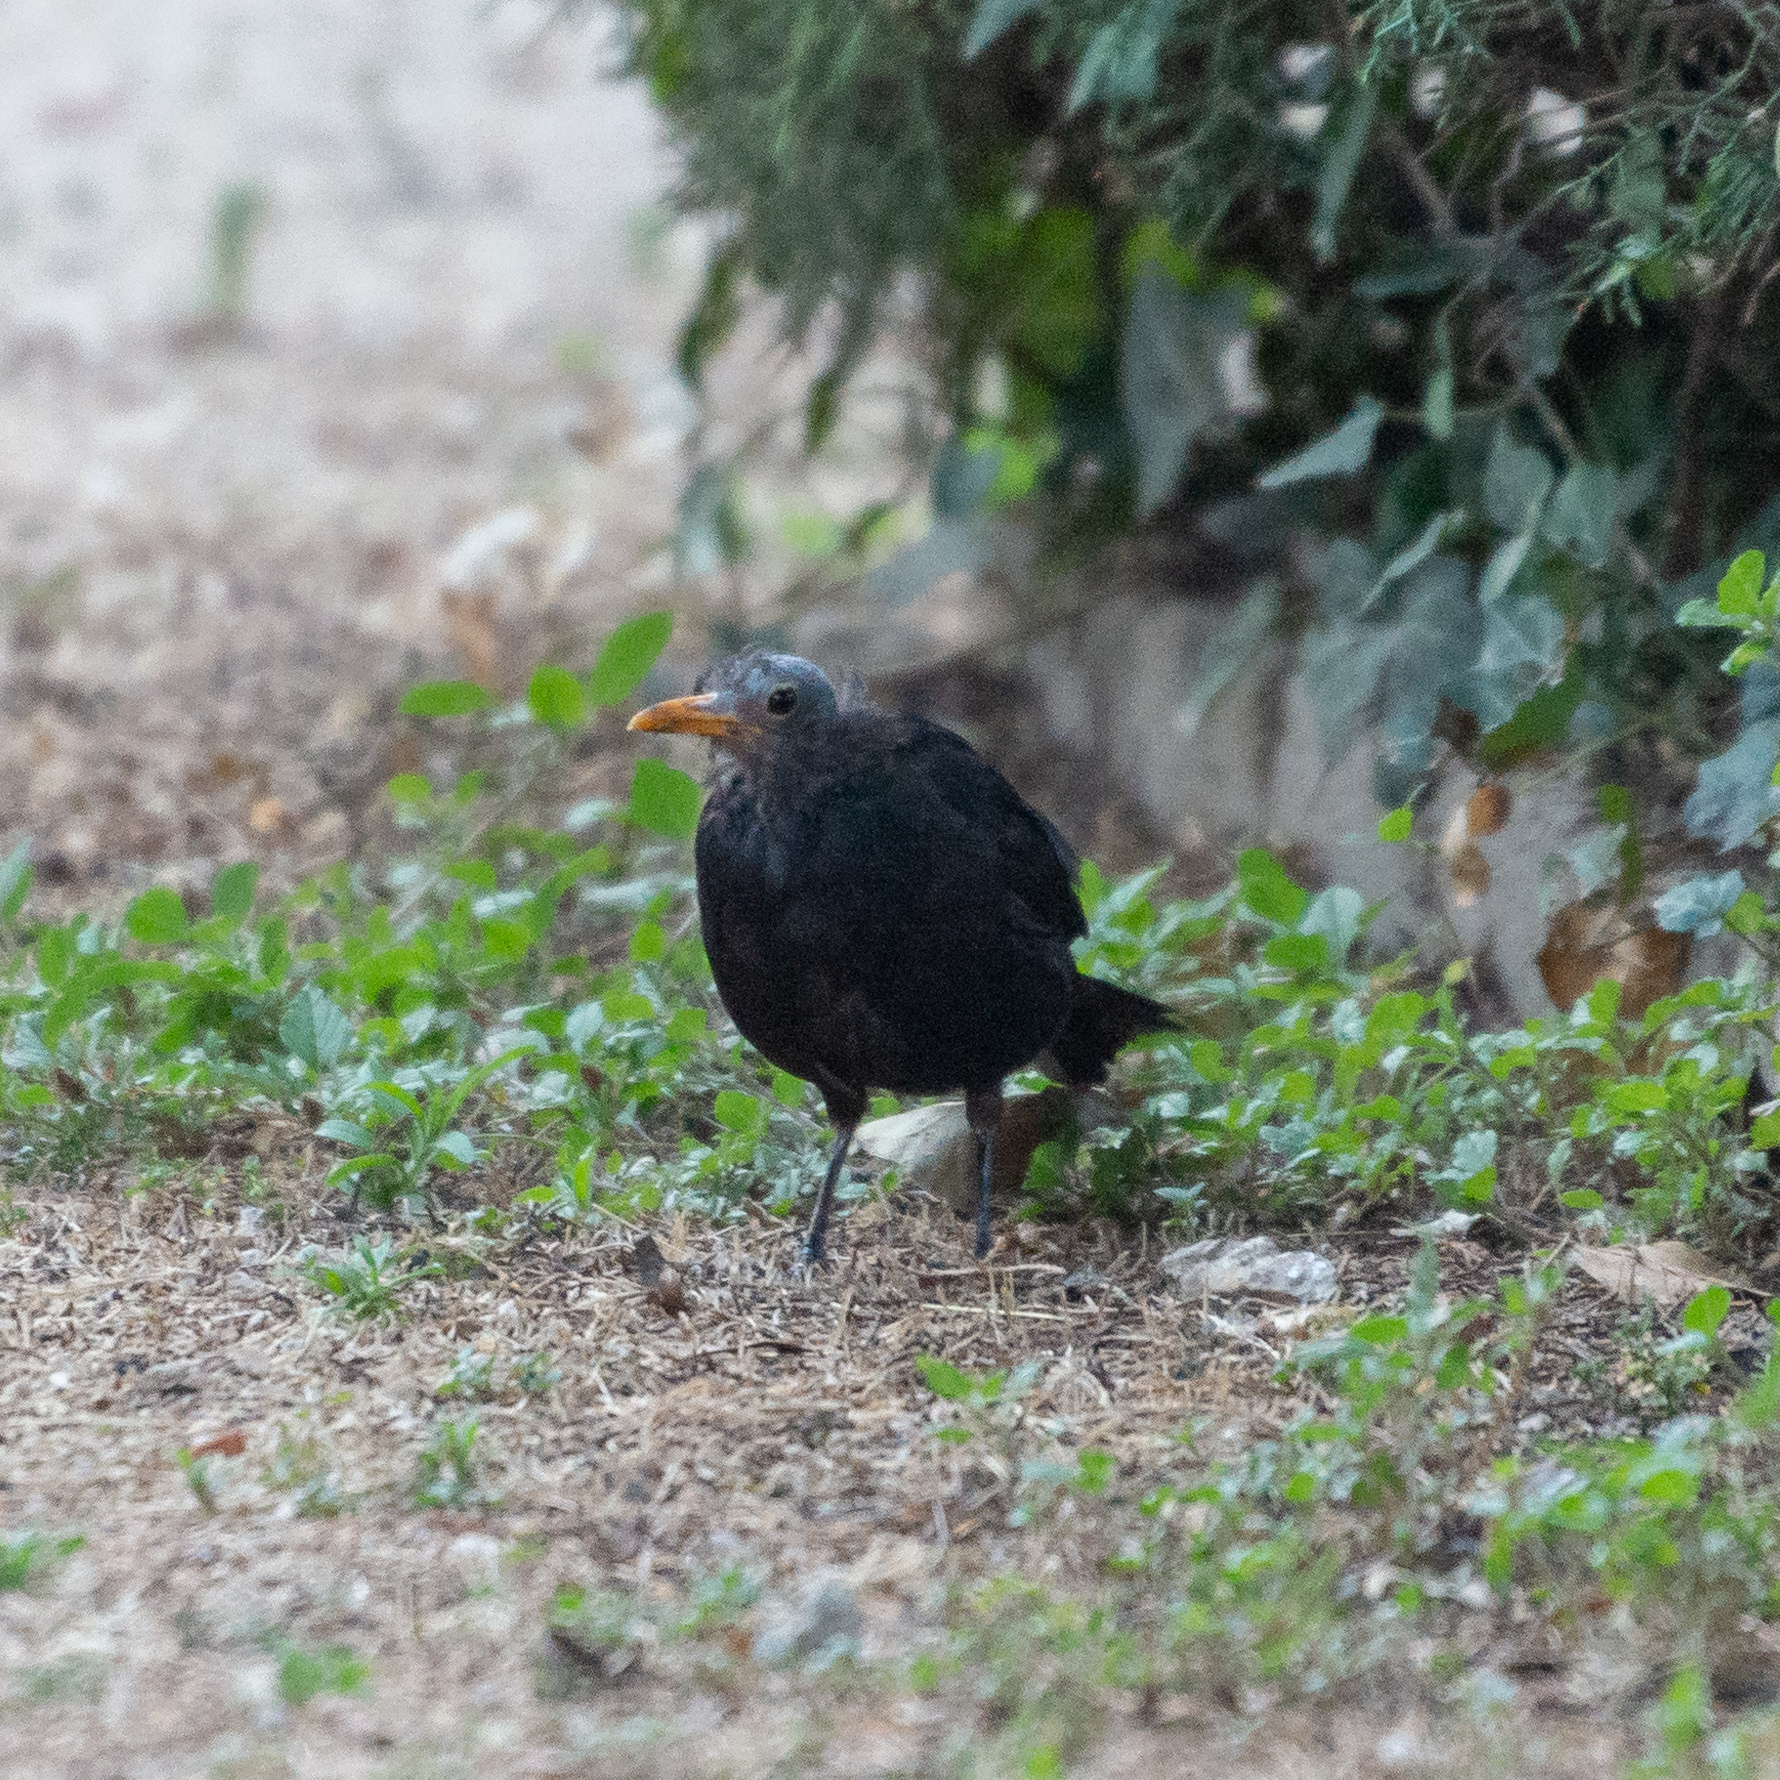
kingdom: Animalia
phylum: Chordata
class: Aves
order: Passeriformes
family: Turdidae
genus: Turdus
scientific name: Turdus merula
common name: Common blackbird
